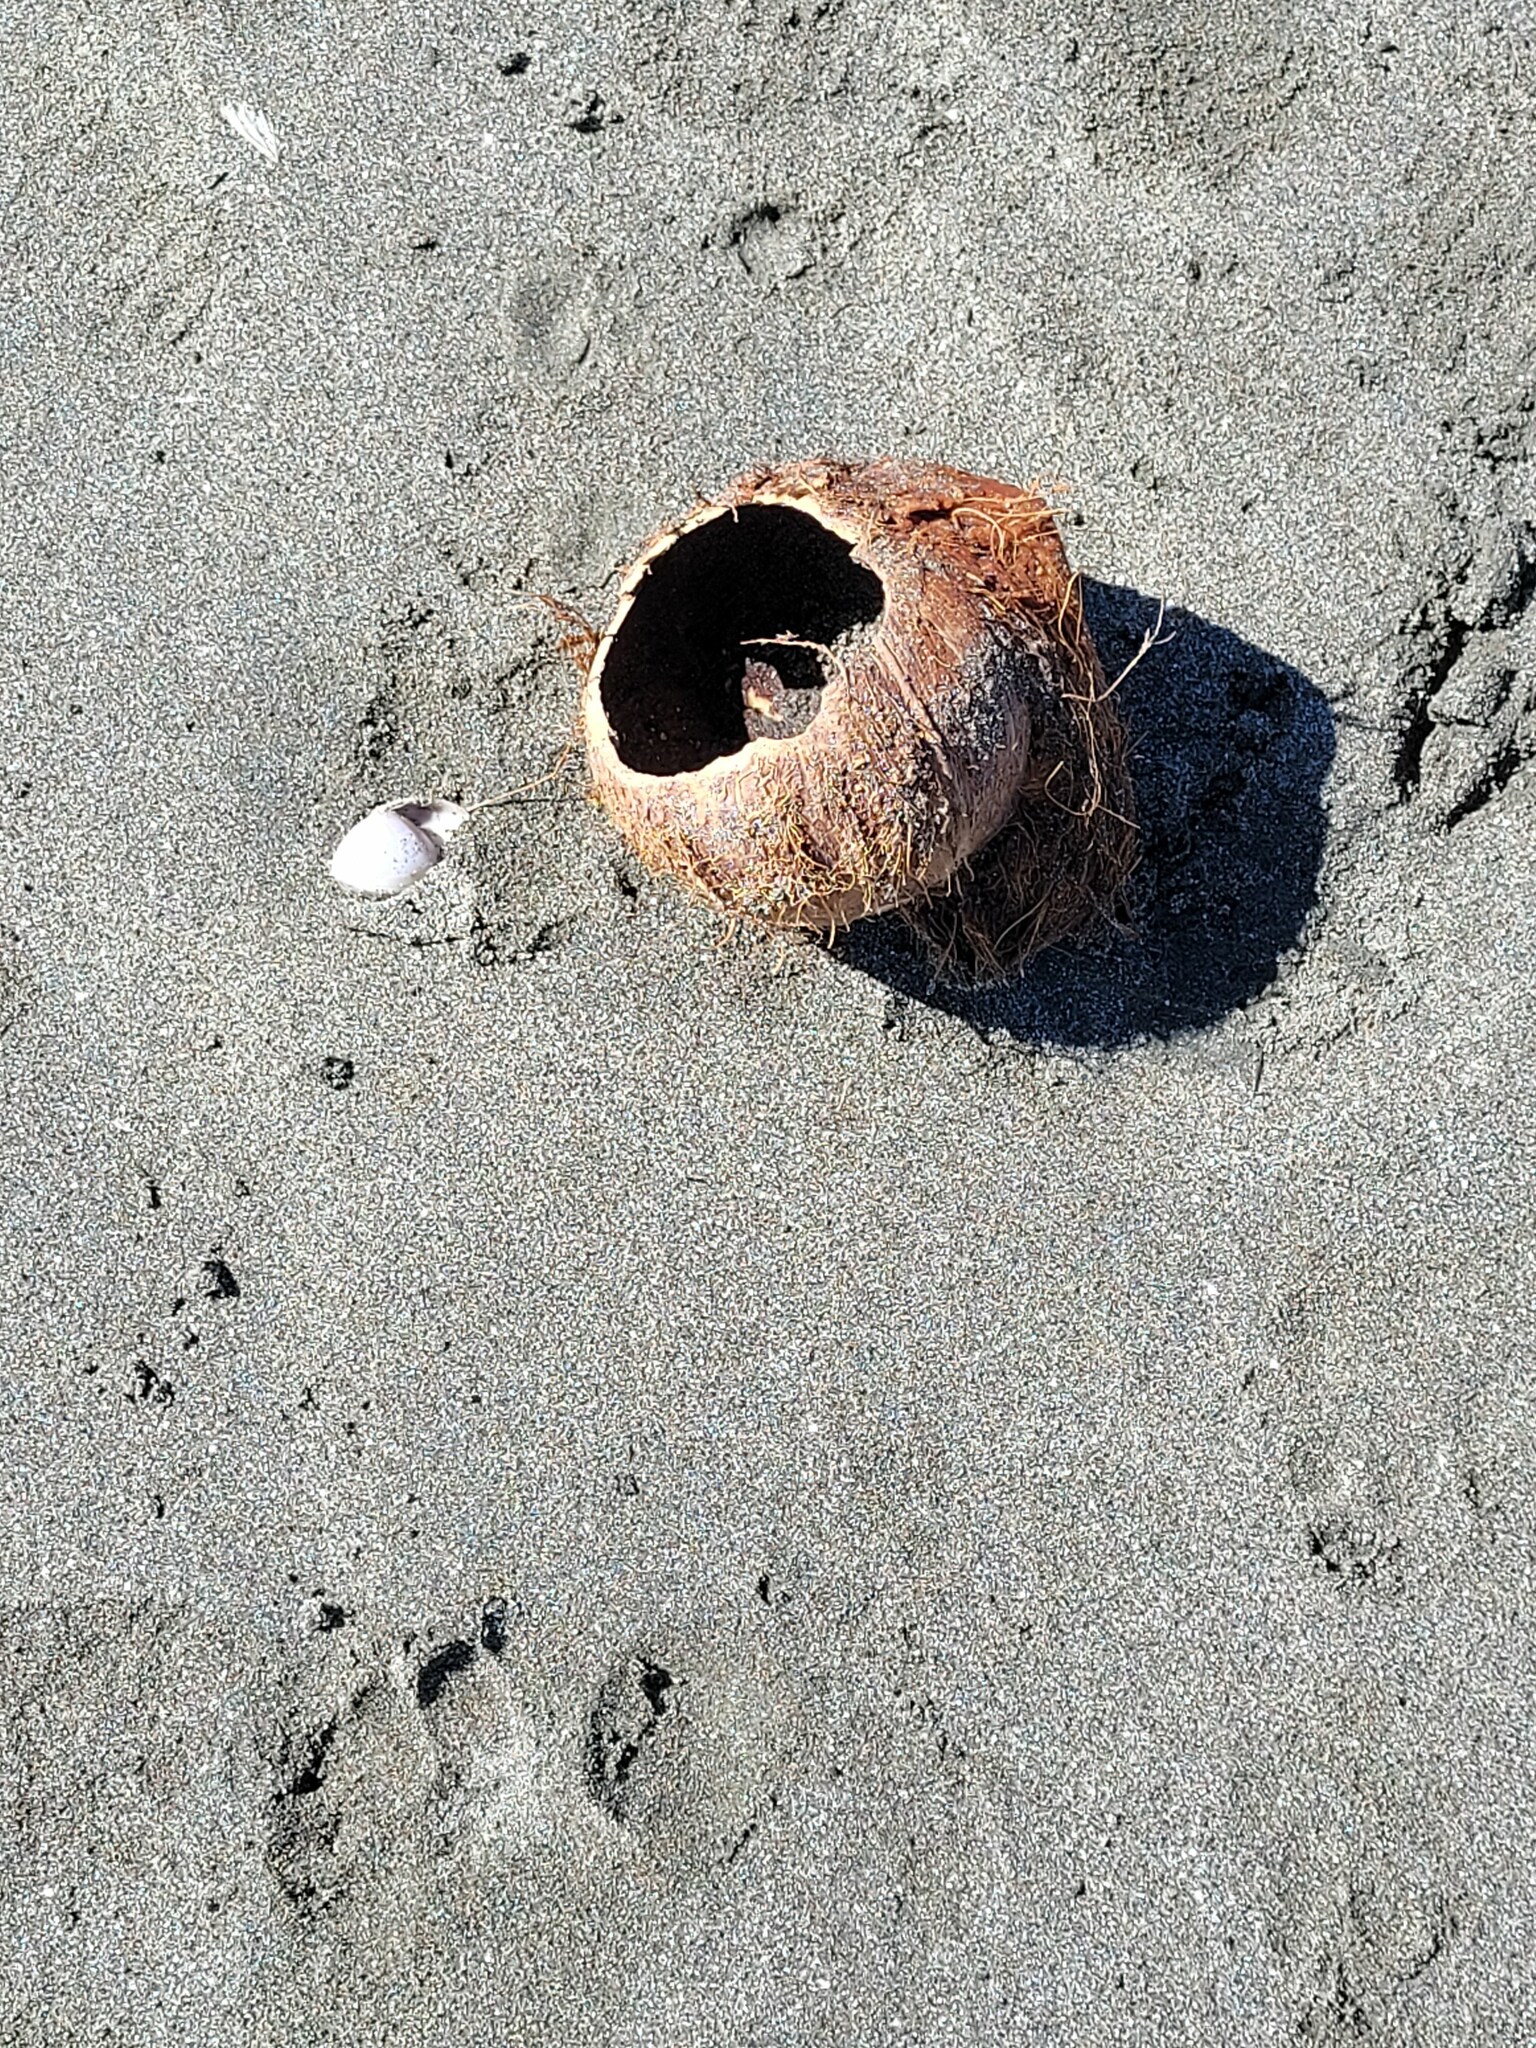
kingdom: Plantae
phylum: Tracheophyta
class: Liliopsida
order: Arecales
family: Arecaceae
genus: Cocos
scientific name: Cocos nucifera
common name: Coconut palm
